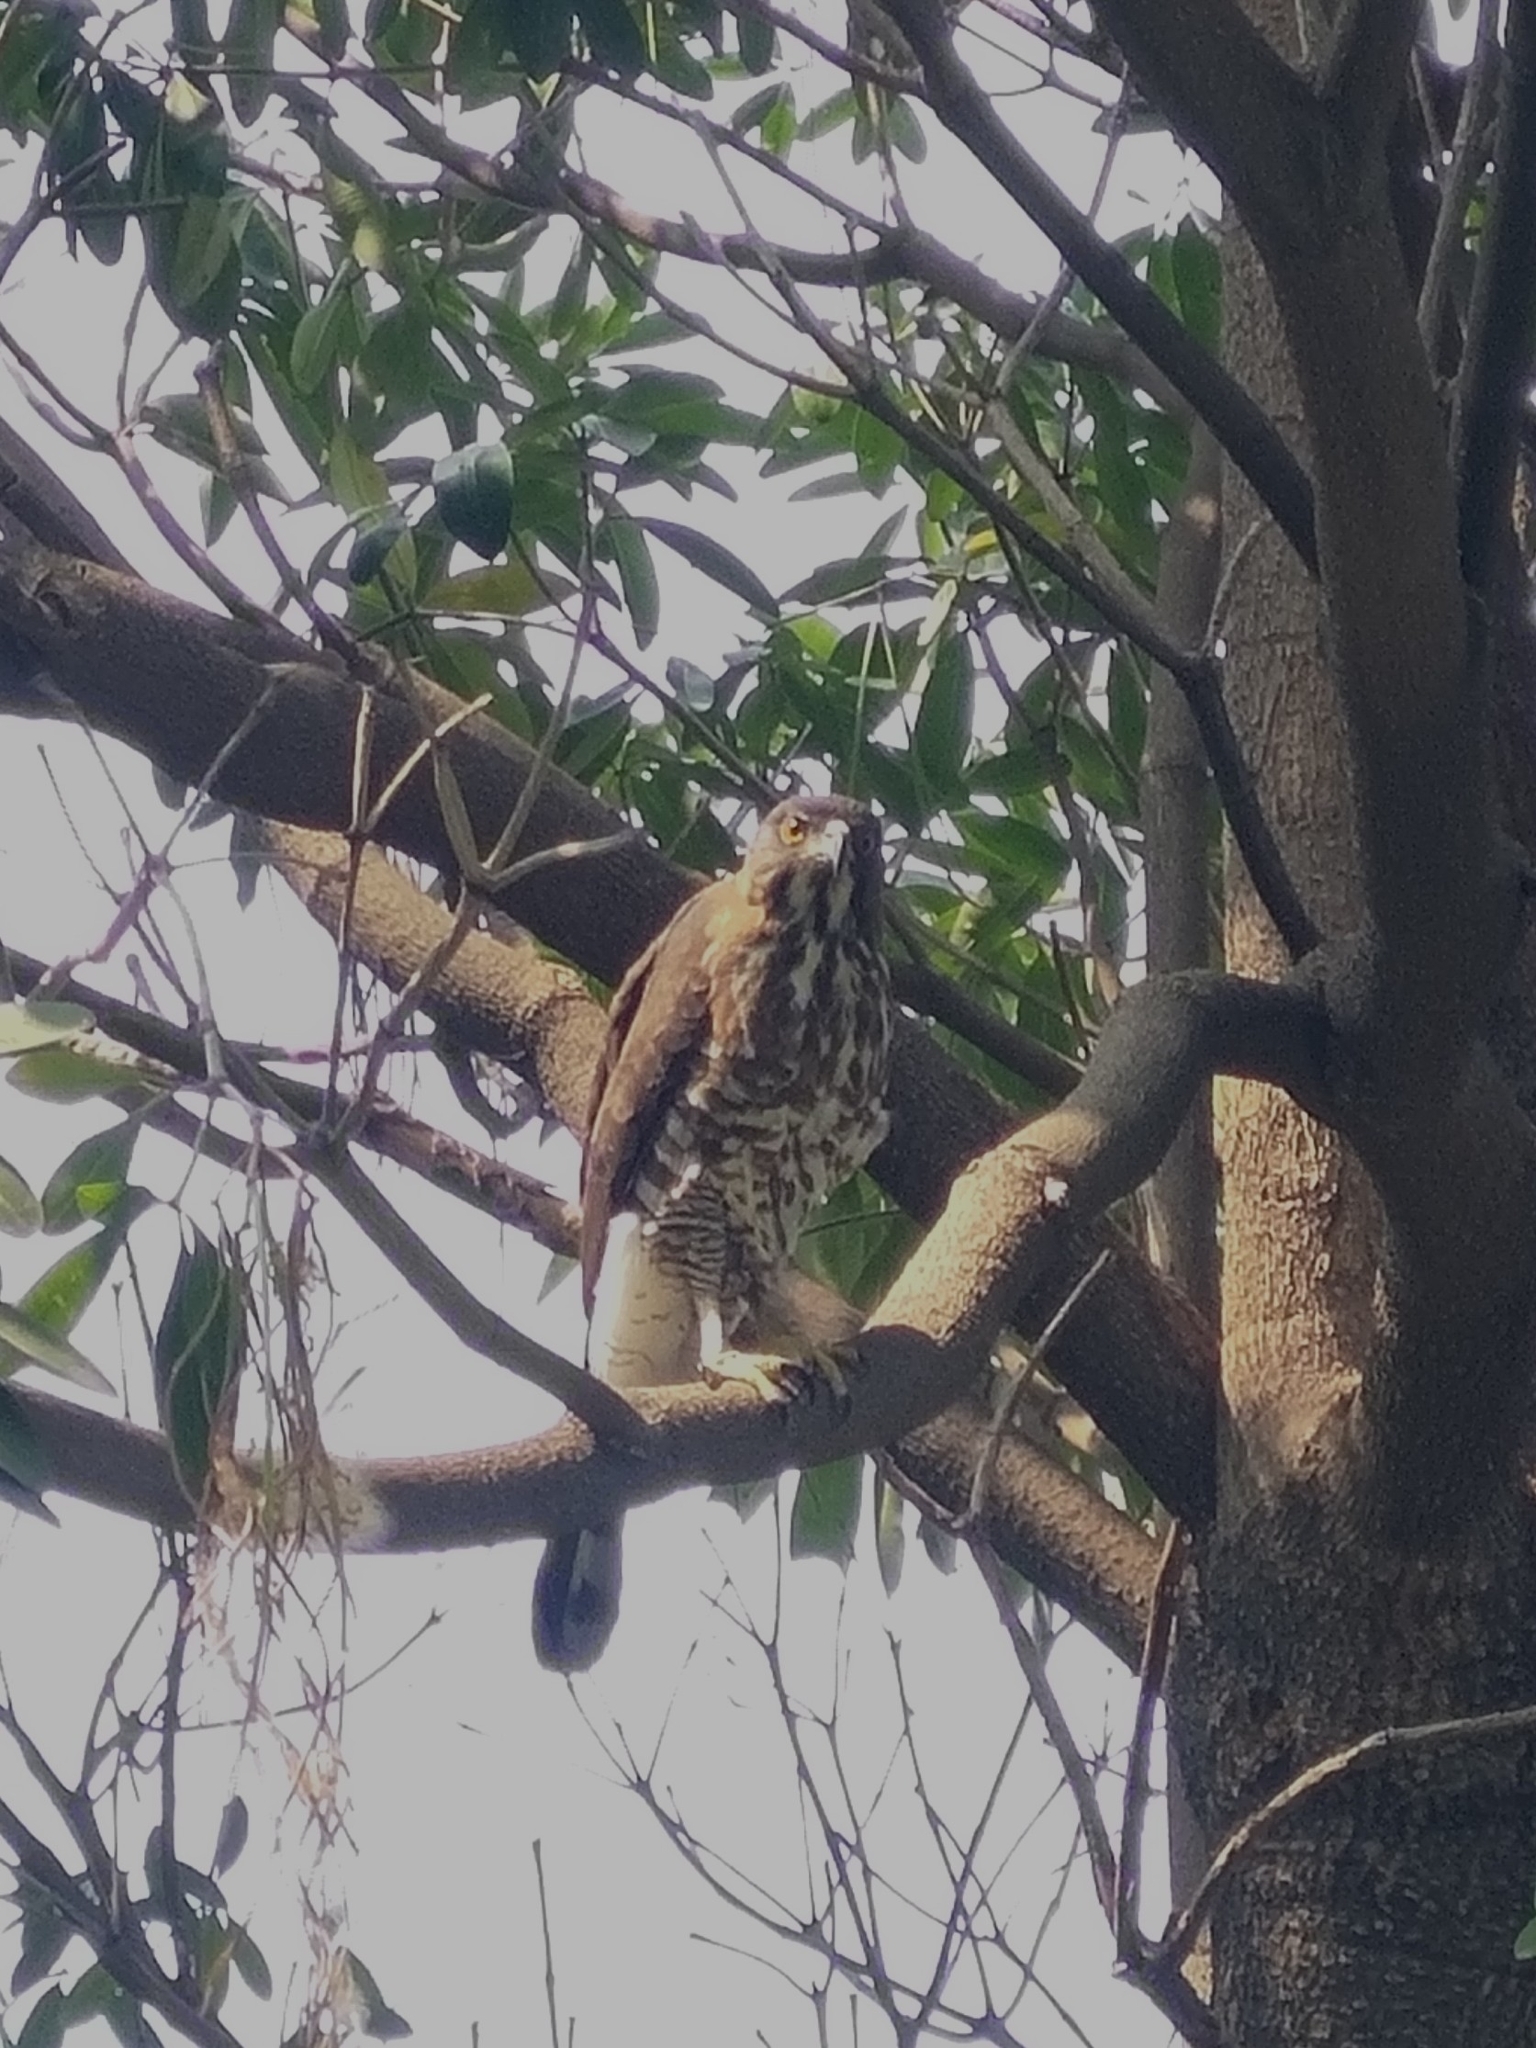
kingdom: Animalia
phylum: Chordata
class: Aves
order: Accipitriformes
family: Accipitridae
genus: Accipiter
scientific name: Accipiter trivirgatus
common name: Crested goshawk
